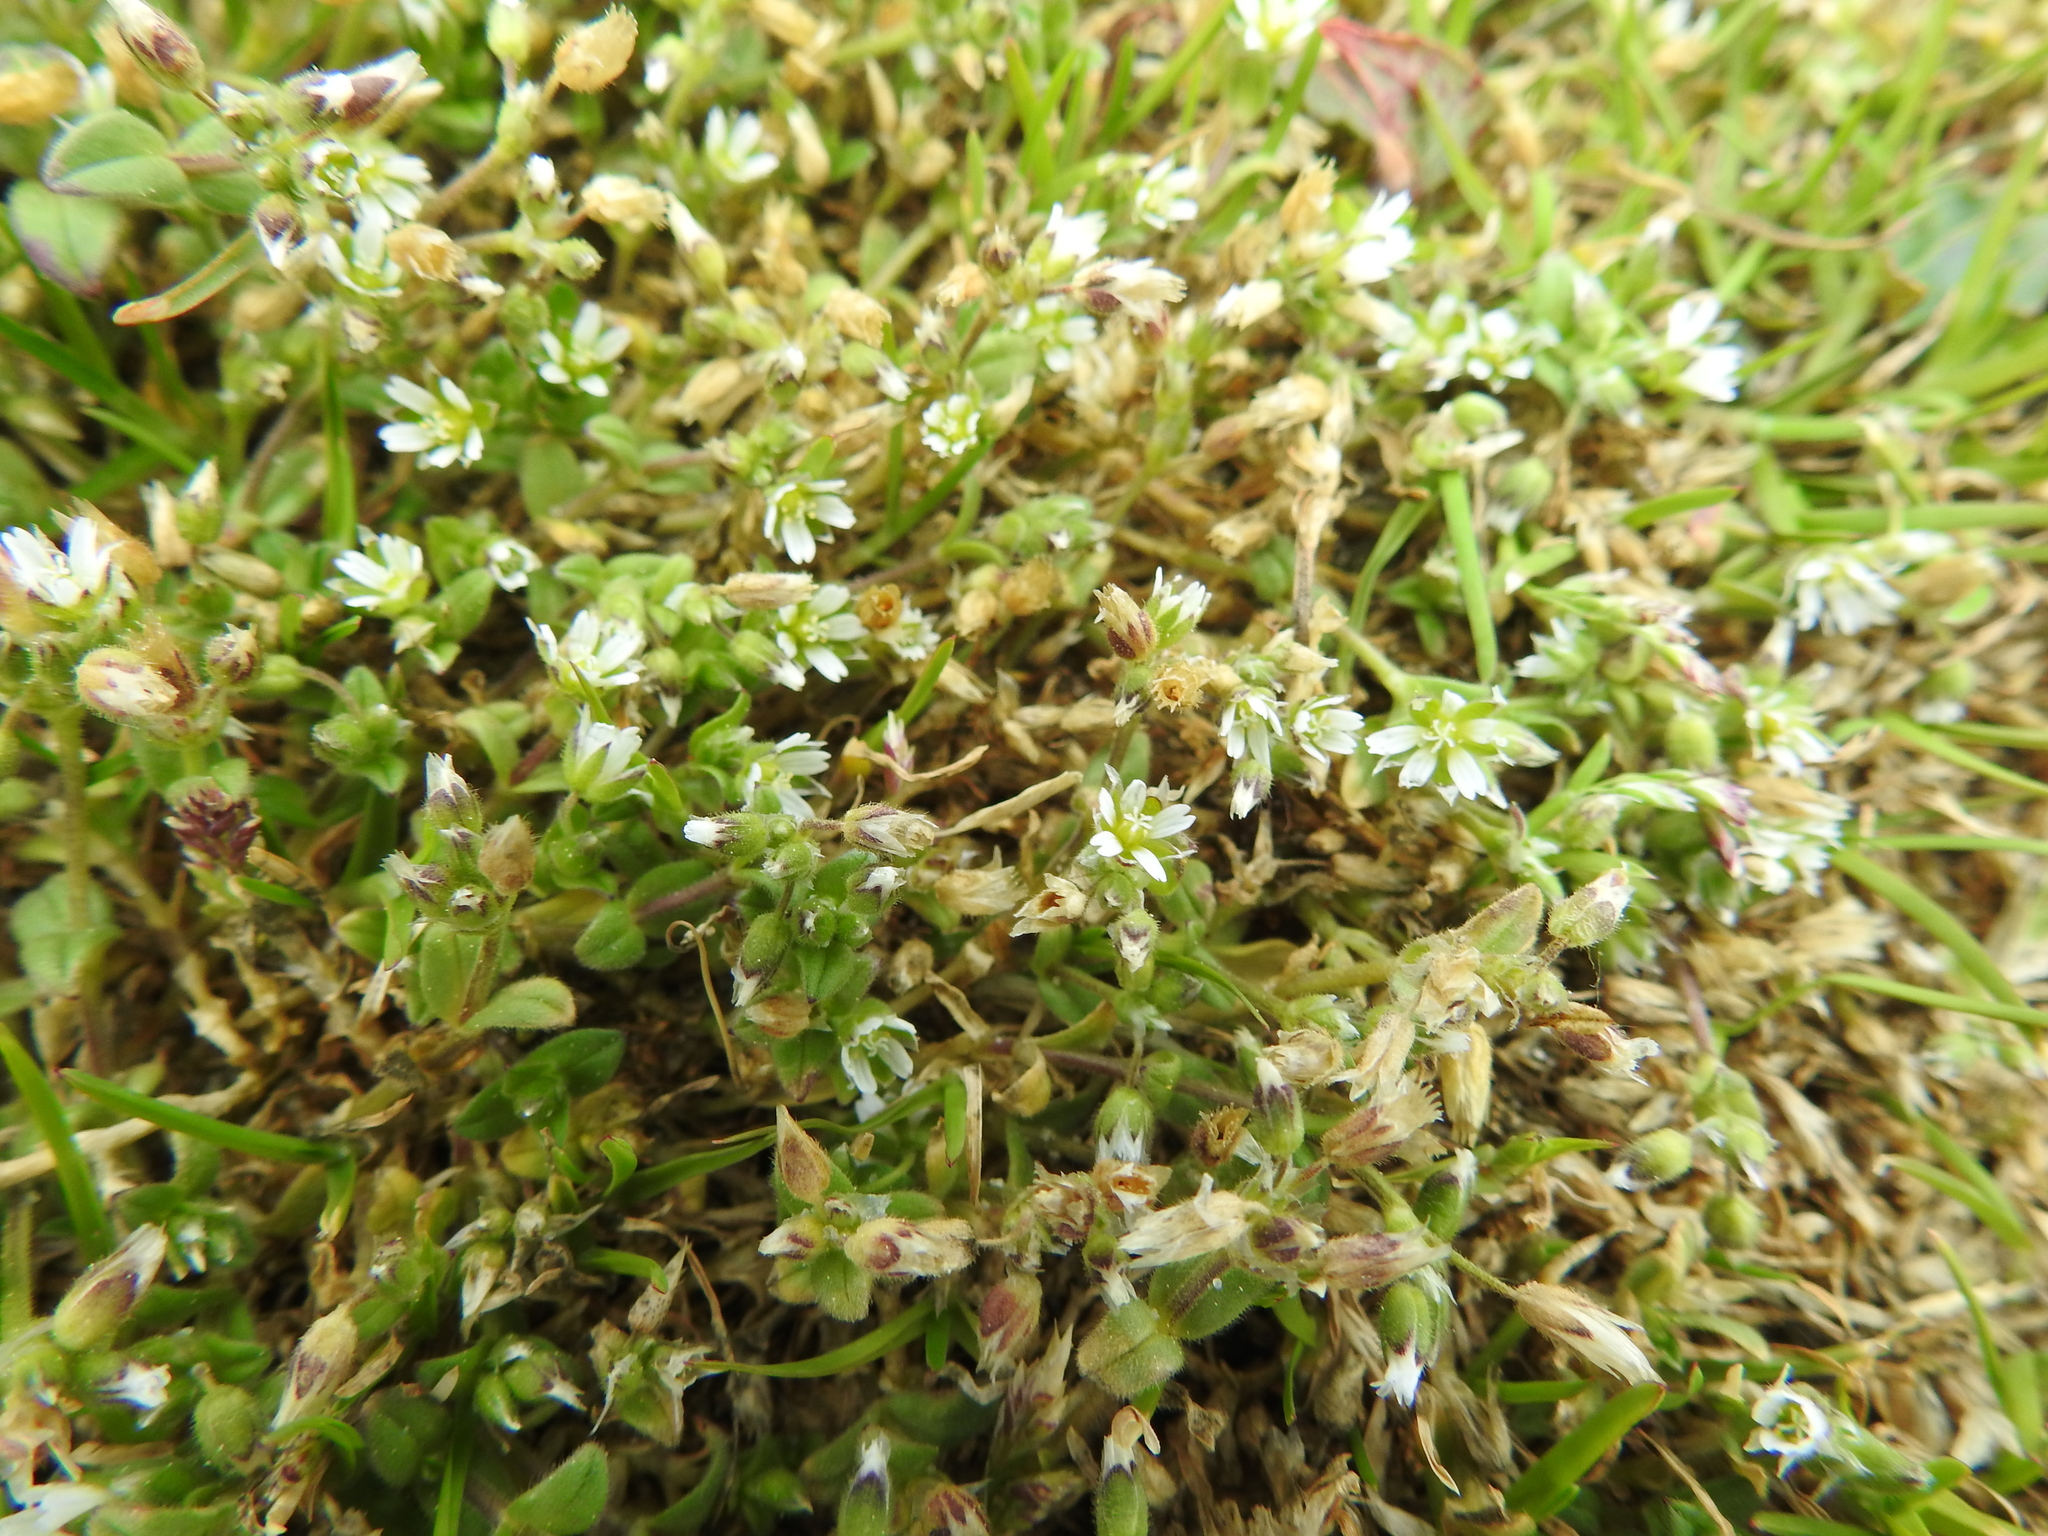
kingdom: Plantae
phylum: Tracheophyta
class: Magnoliopsida
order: Caryophyllales
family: Caryophyllaceae
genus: Cerastium
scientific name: Cerastium semidecandrum
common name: Little mouse-ear
